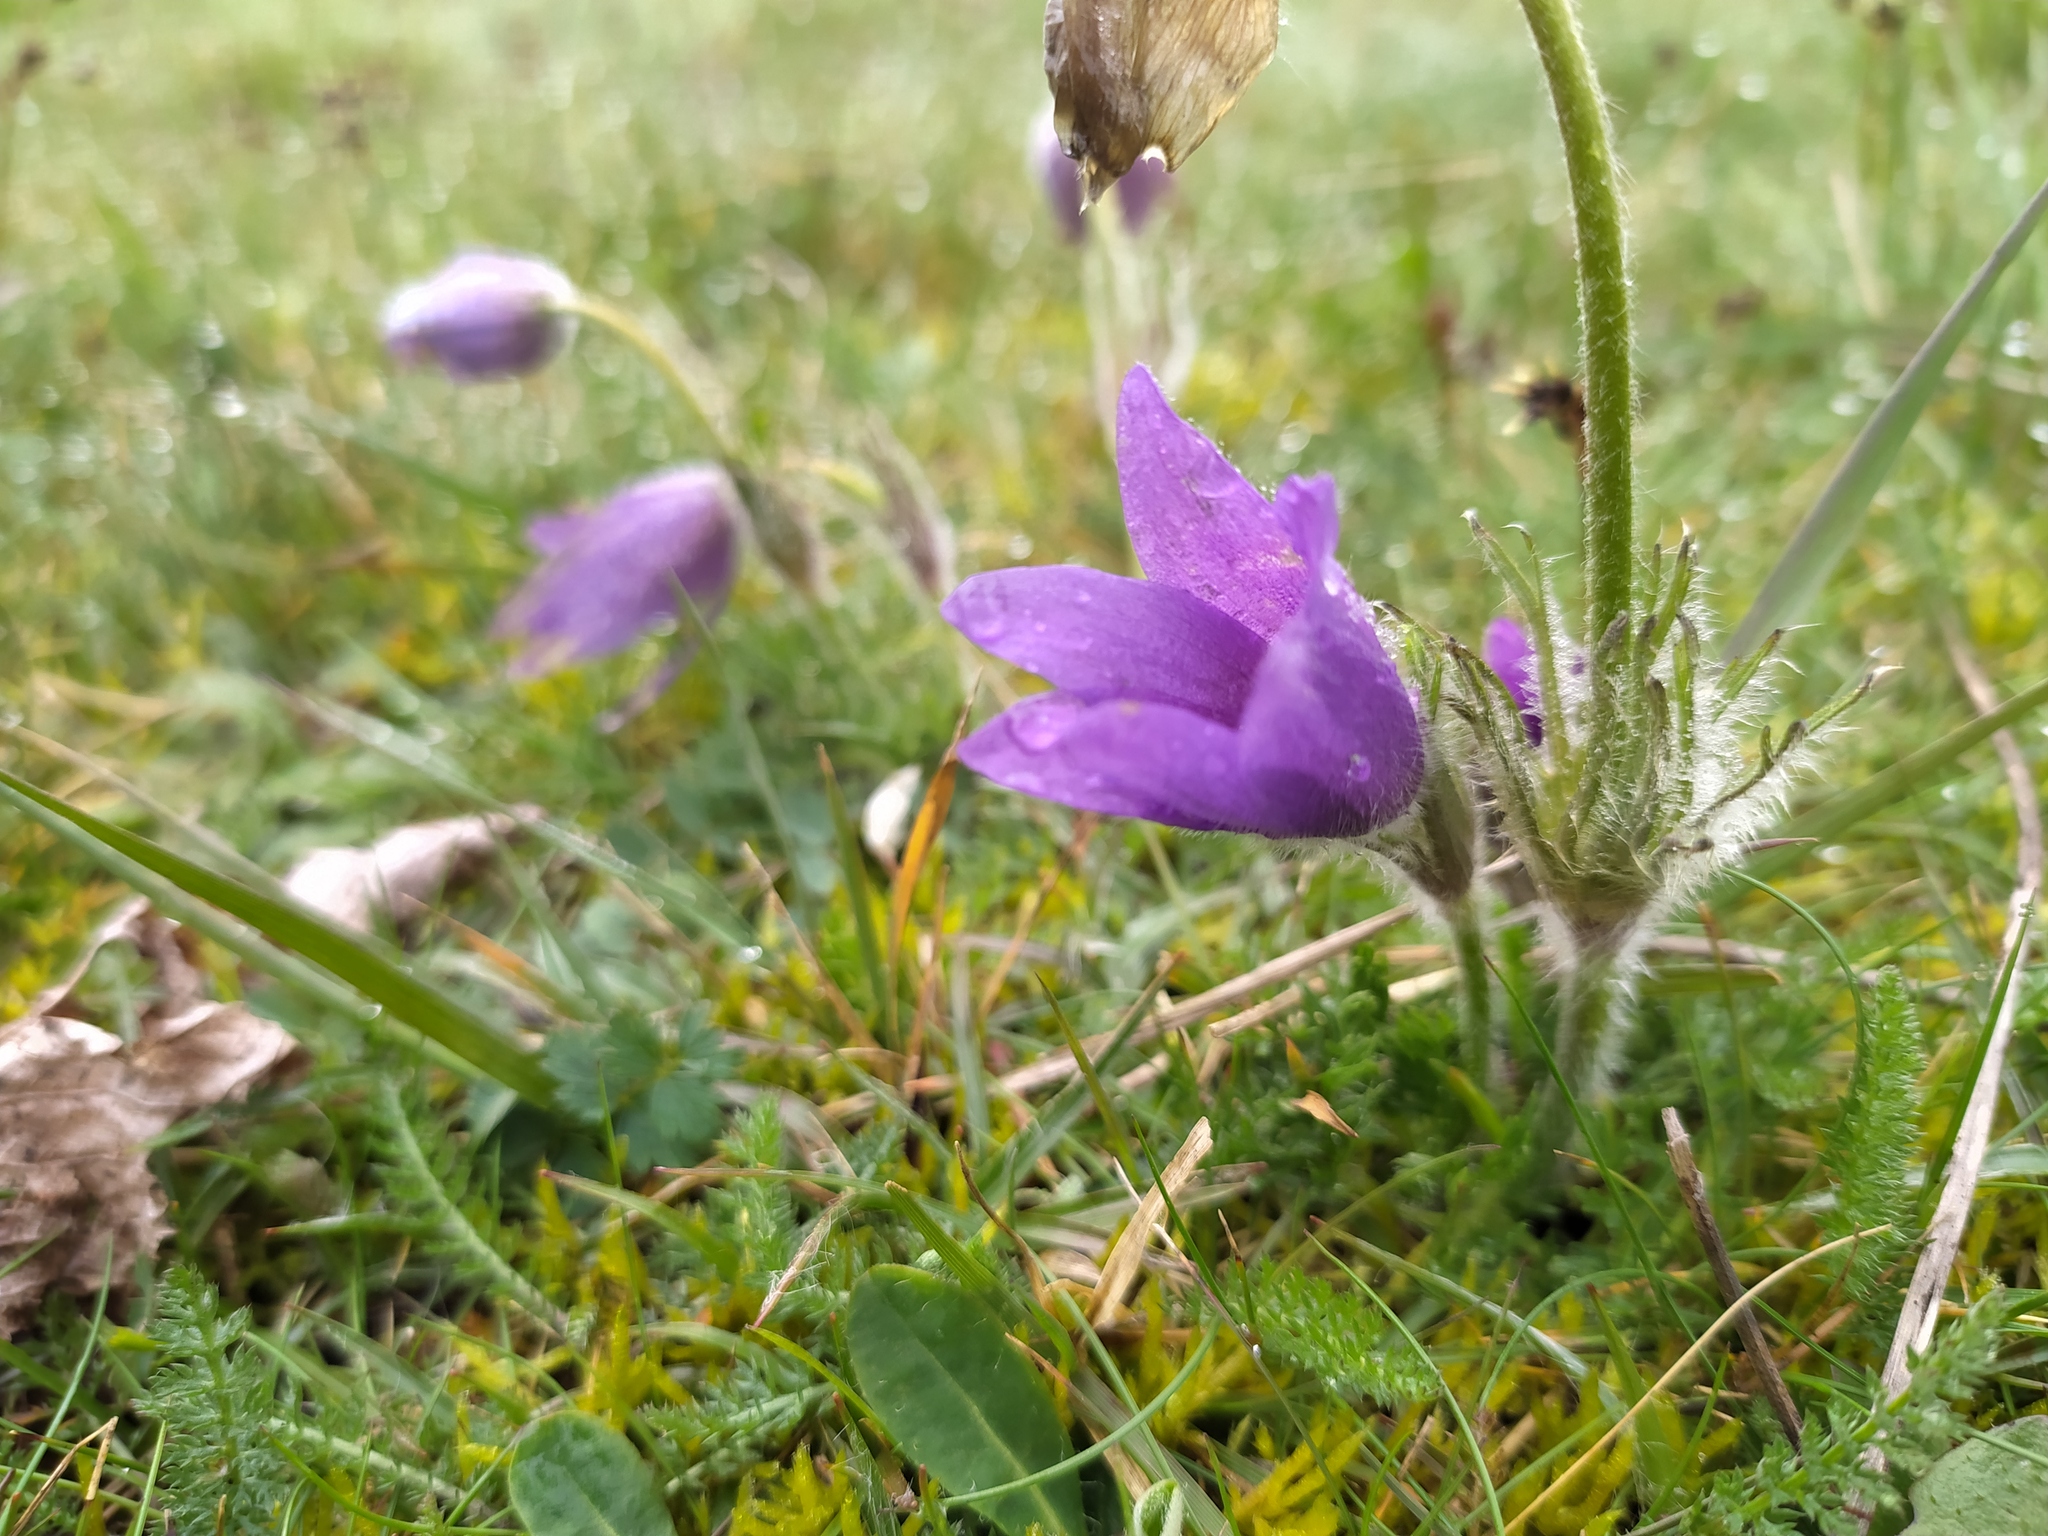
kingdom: Plantae
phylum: Tracheophyta
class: Magnoliopsida
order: Ranunculales
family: Ranunculaceae
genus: Pulsatilla
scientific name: Pulsatilla vulgaris
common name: Pasqueflower
